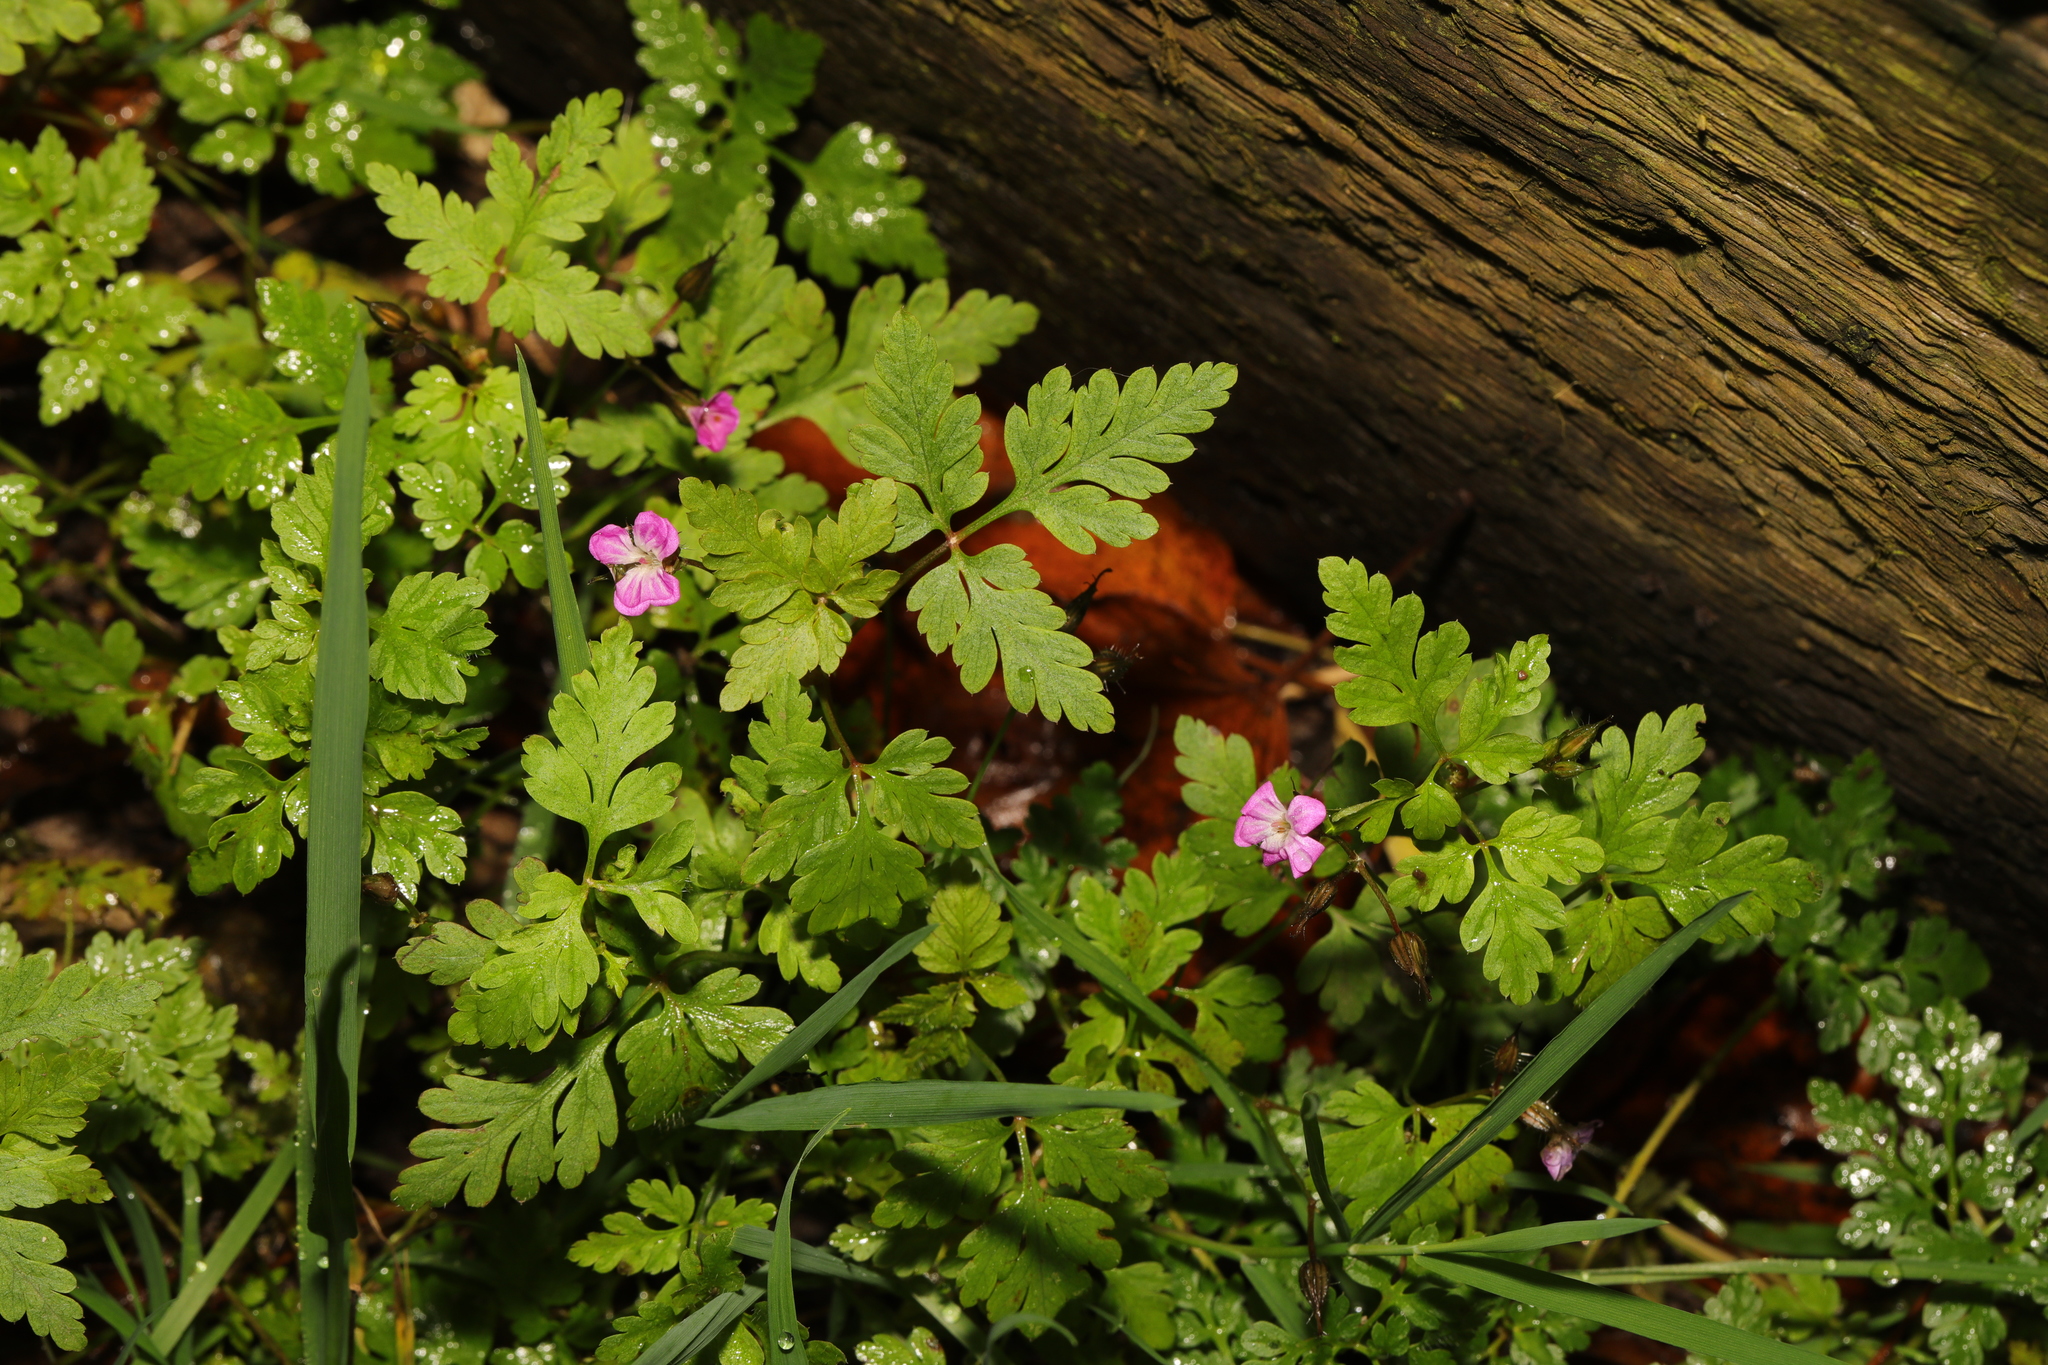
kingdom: Plantae
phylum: Tracheophyta
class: Magnoliopsida
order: Geraniales
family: Geraniaceae
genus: Geranium
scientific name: Geranium robertianum
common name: Herb-robert
